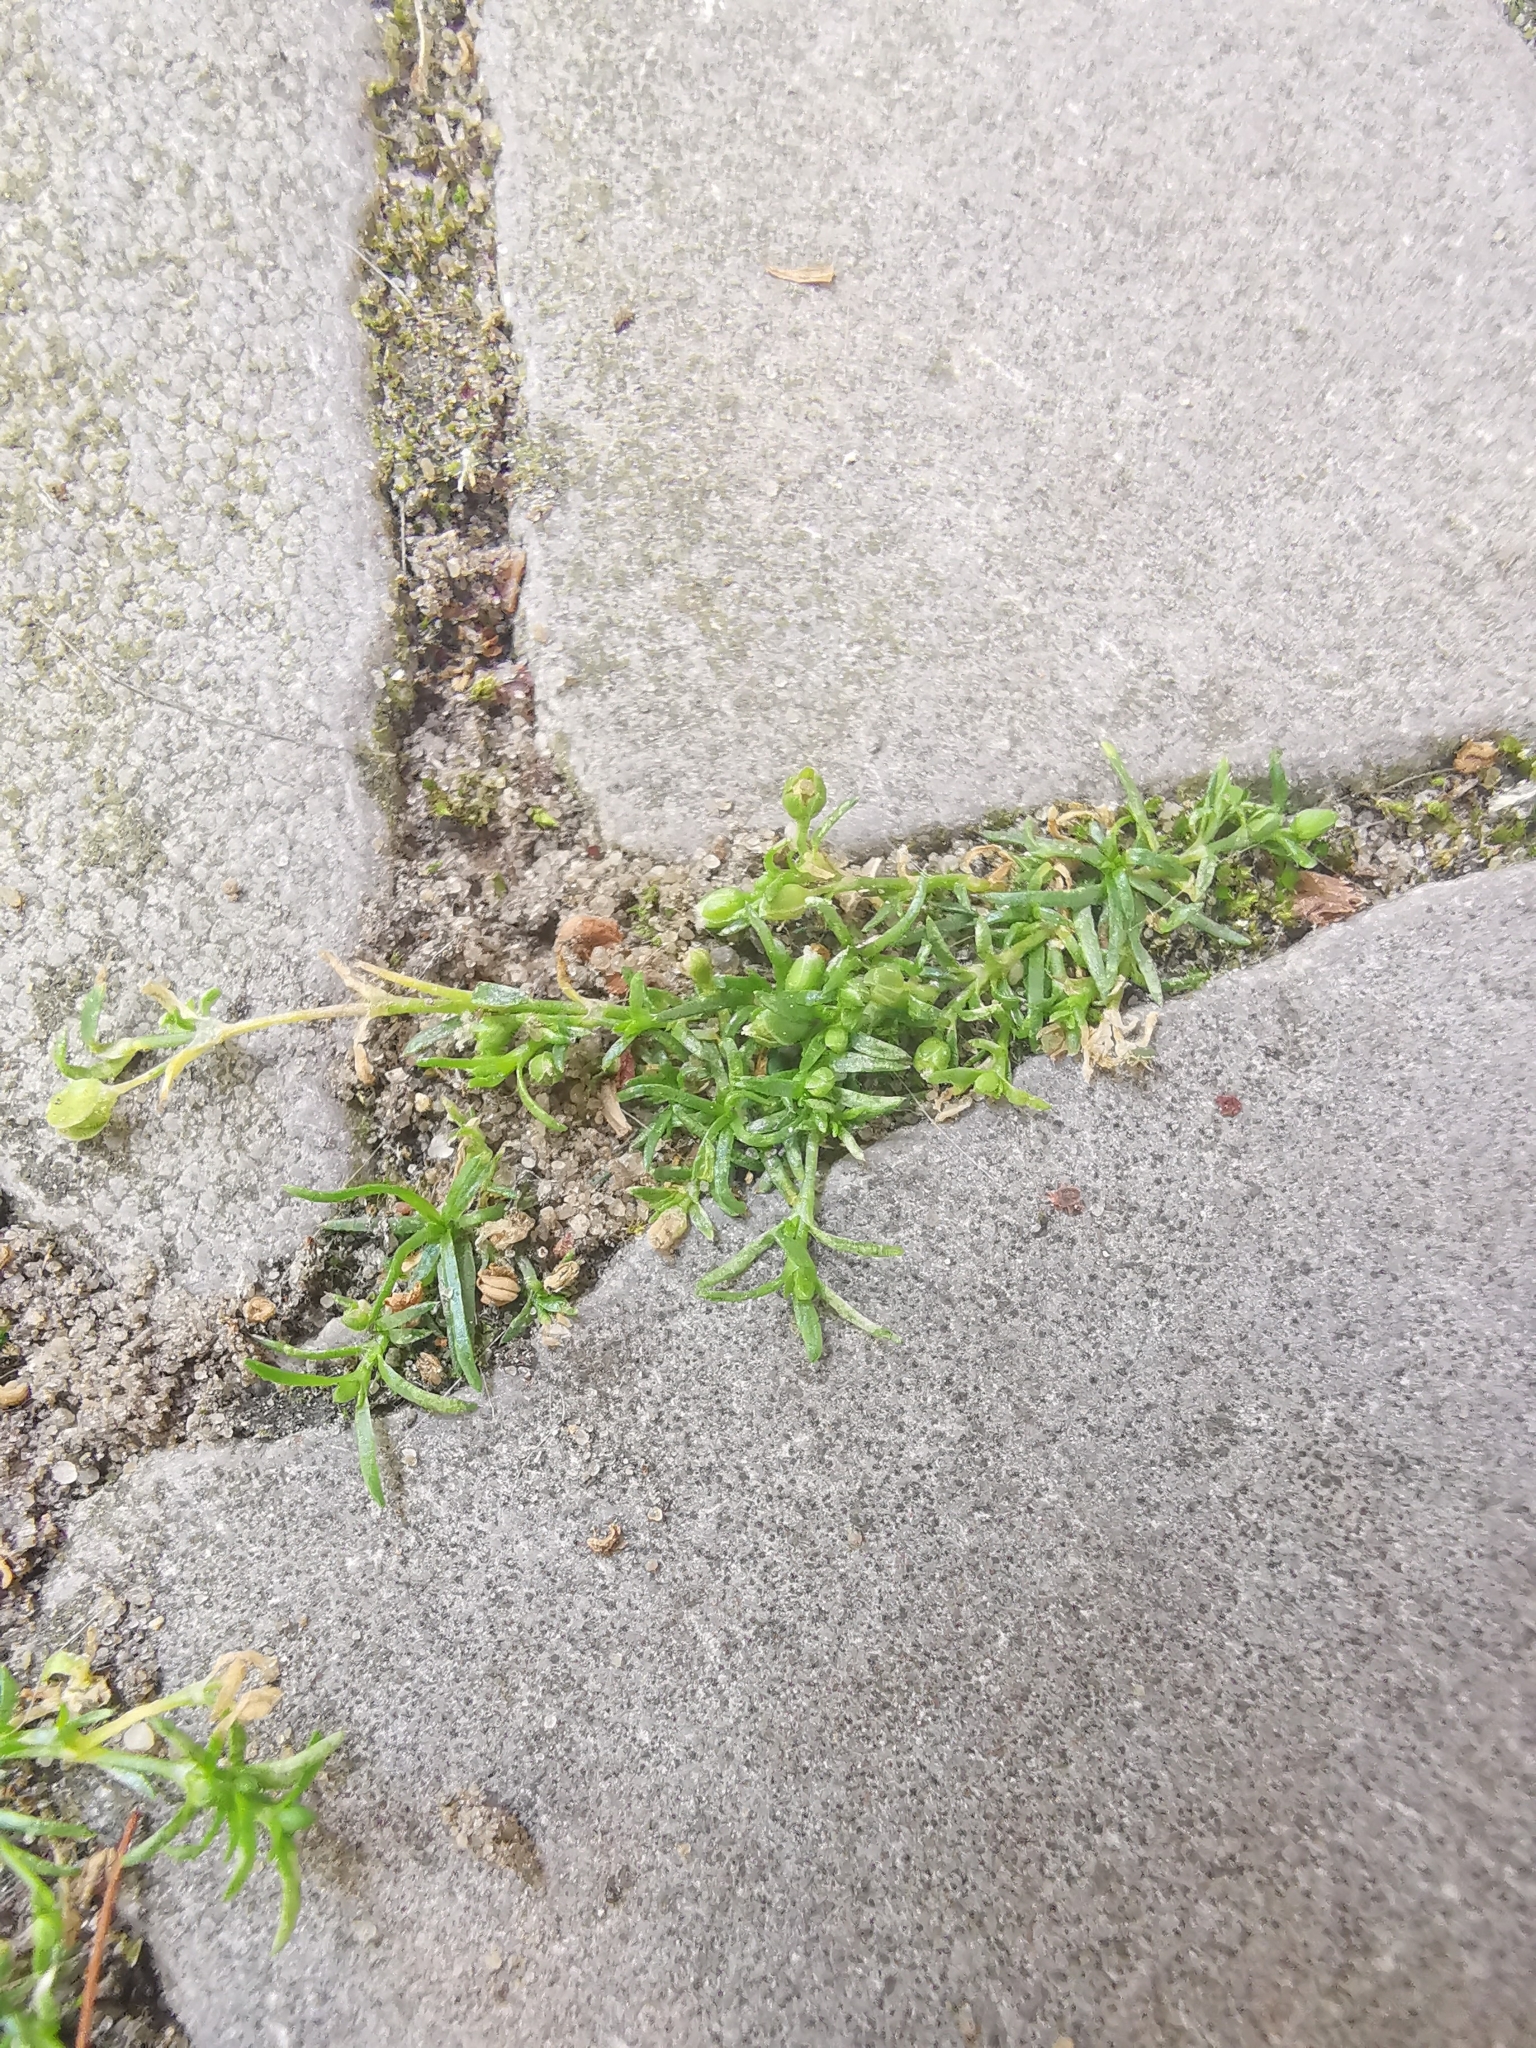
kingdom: Plantae
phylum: Tracheophyta
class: Magnoliopsida
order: Caryophyllales
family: Caryophyllaceae
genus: Sagina
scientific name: Sagina procumbens
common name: Procumbent pearlwort
